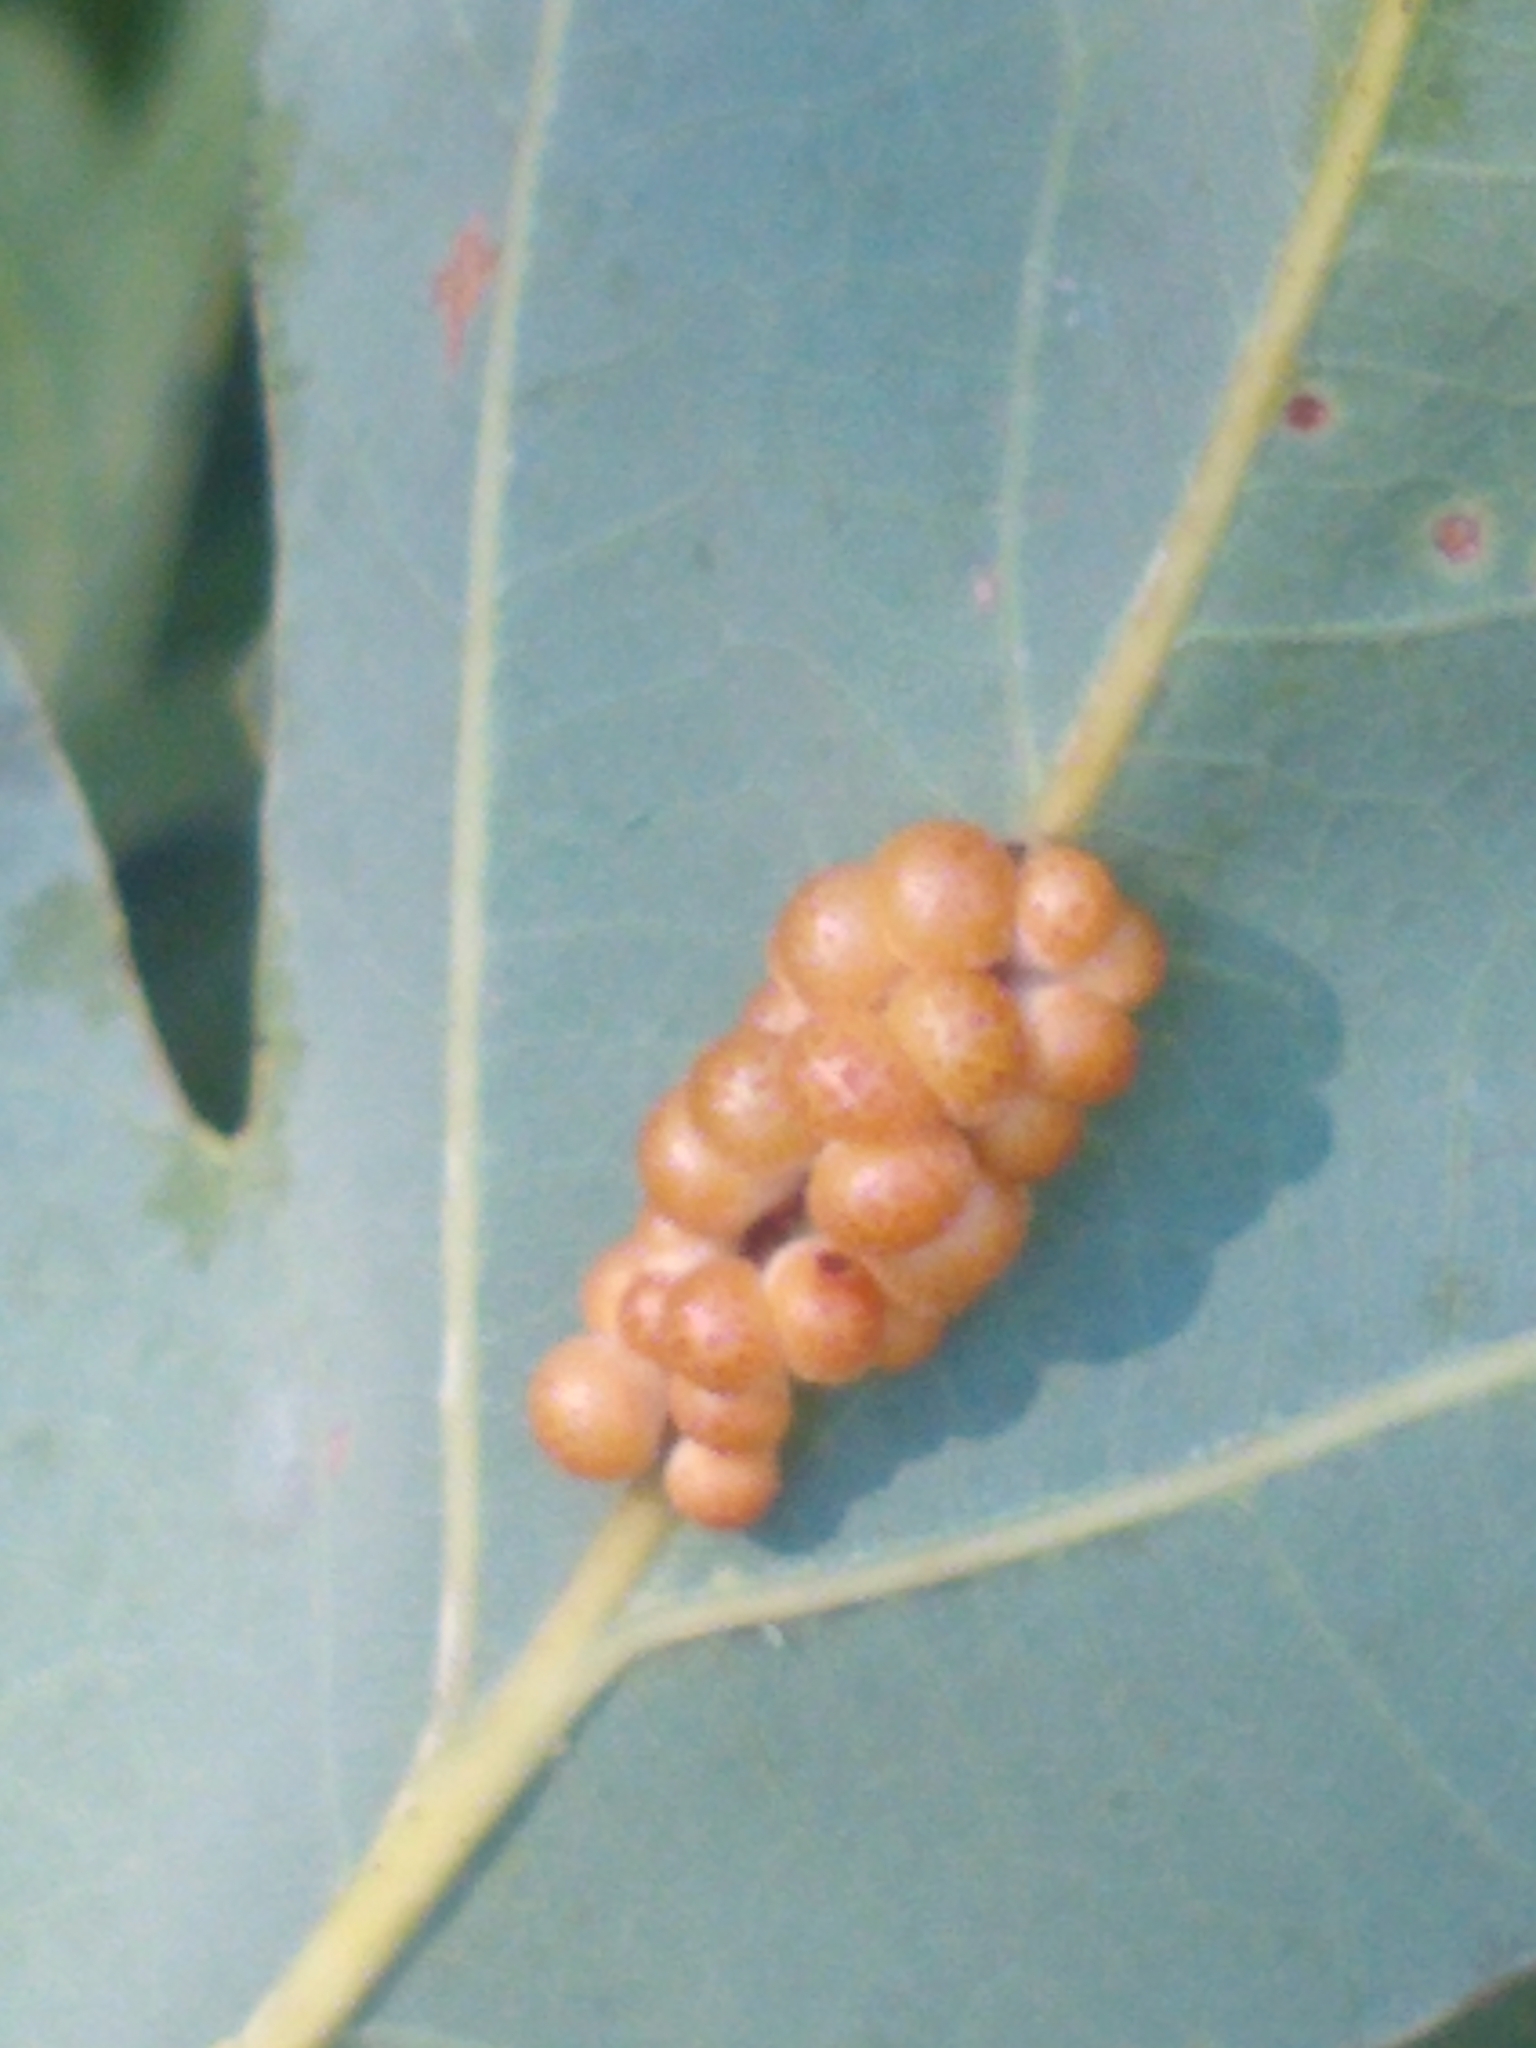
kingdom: Animalia
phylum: Arthropoda
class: Insecta
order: Hymenoptera
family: Cynipidae
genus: Andricus
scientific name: Andricus
